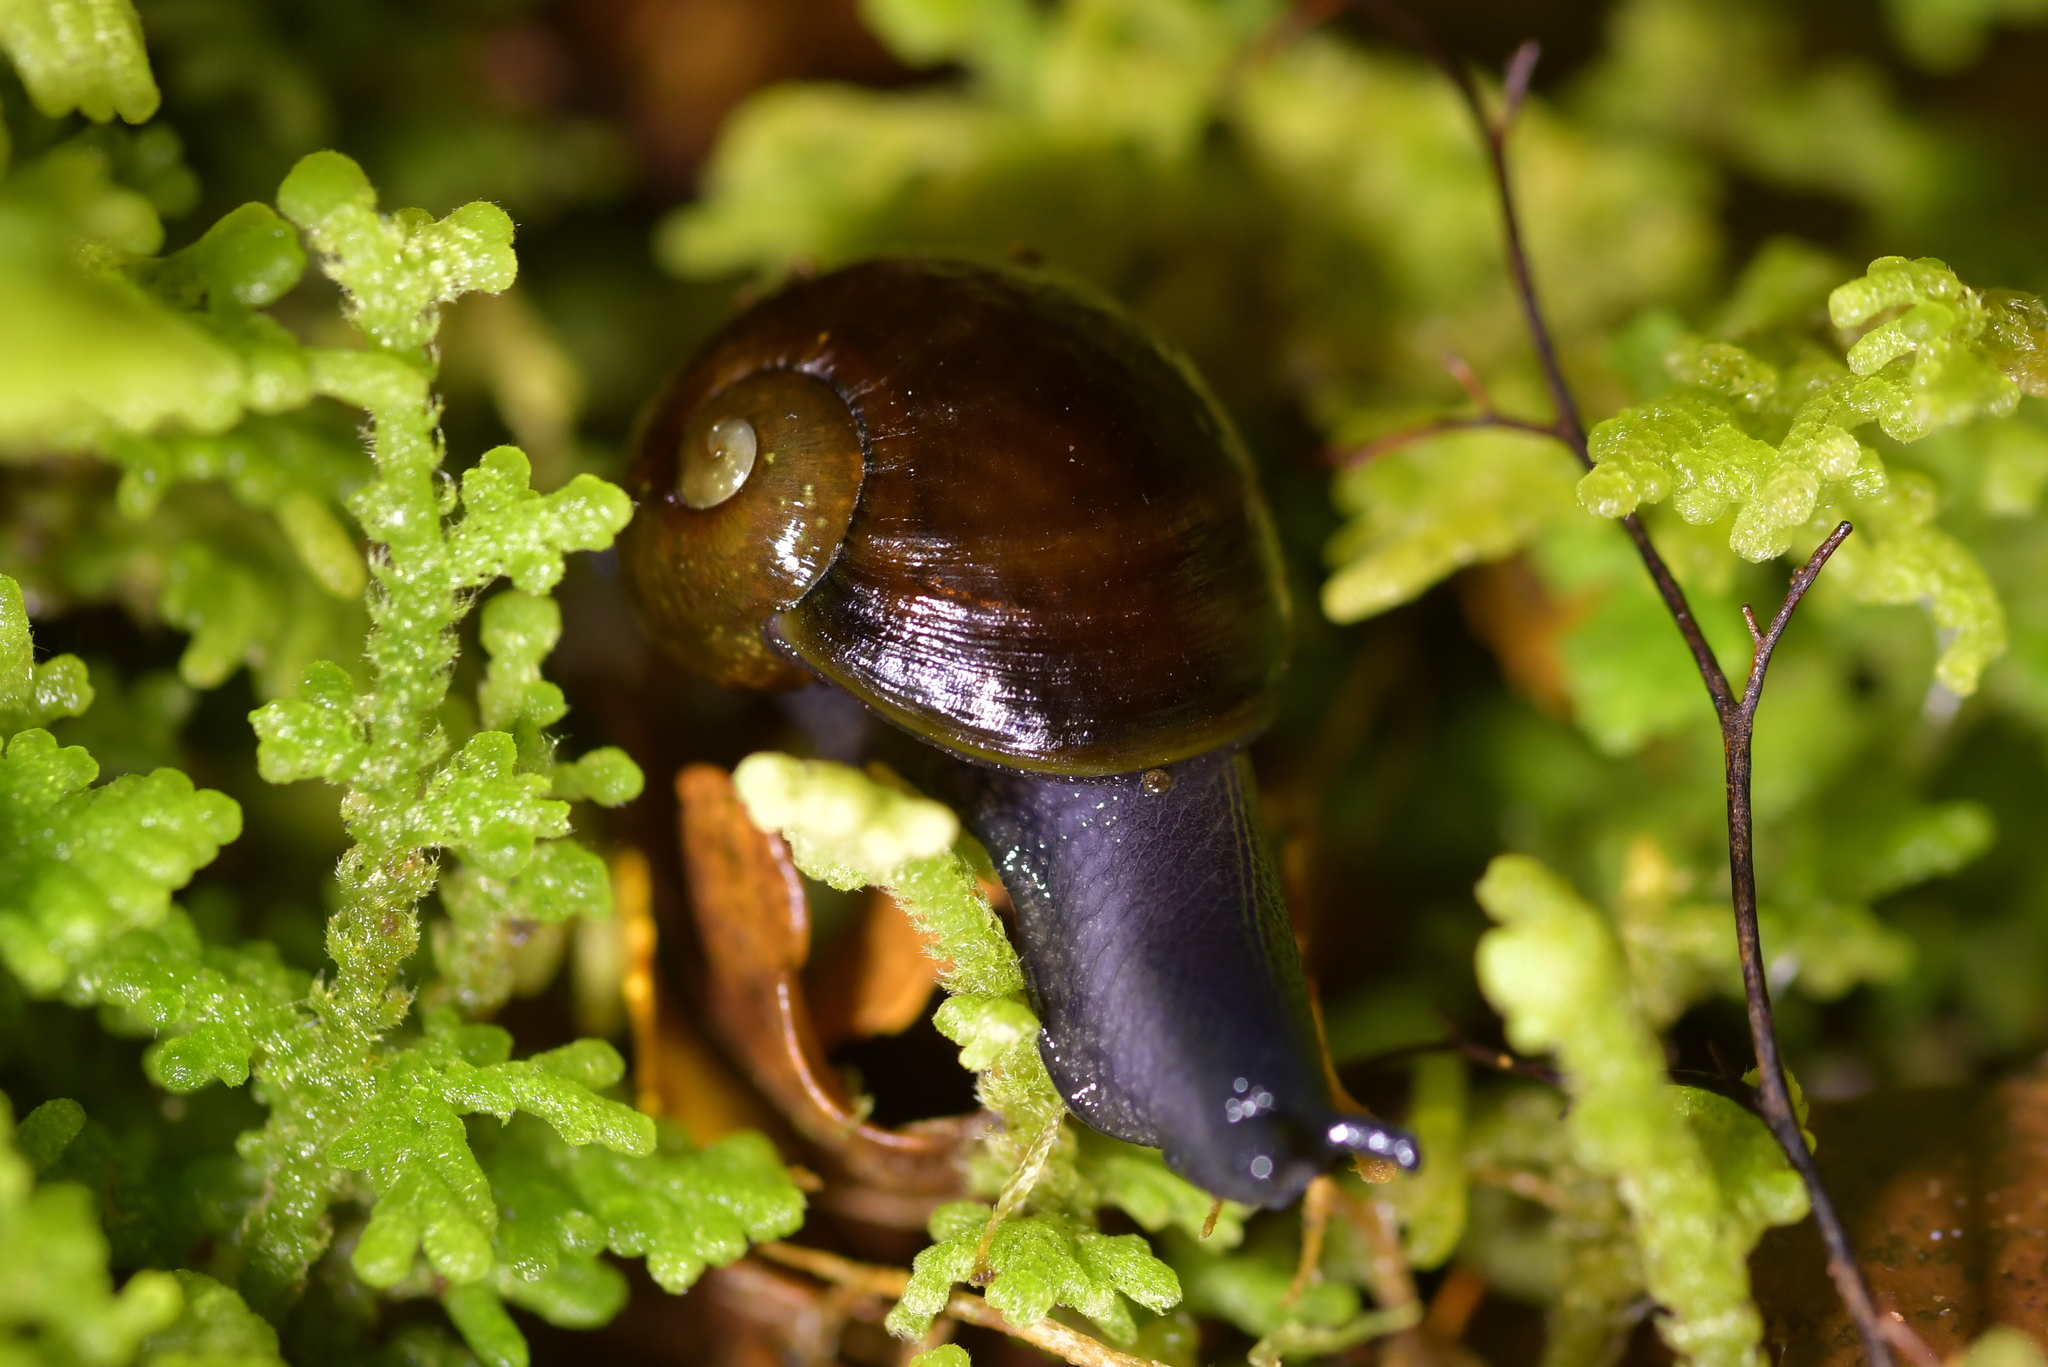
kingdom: Animalia
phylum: Mollusca
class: Gastropoda
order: Stylommatophora
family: Rhytididae
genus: Wainuia
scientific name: Wainuia urnula
